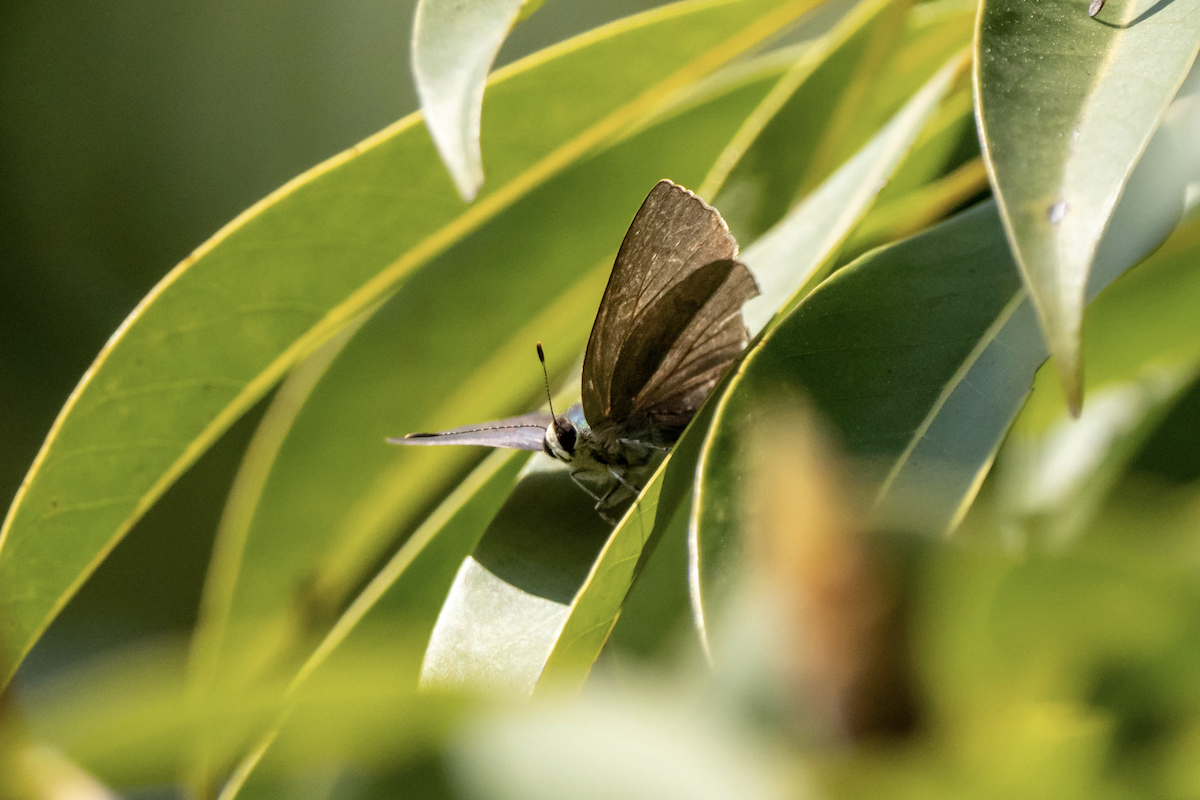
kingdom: Animalia
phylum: Arthropoda
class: Insecta
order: Lepidoptera
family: Lycaenidae
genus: Rapala
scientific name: Rapala manea
